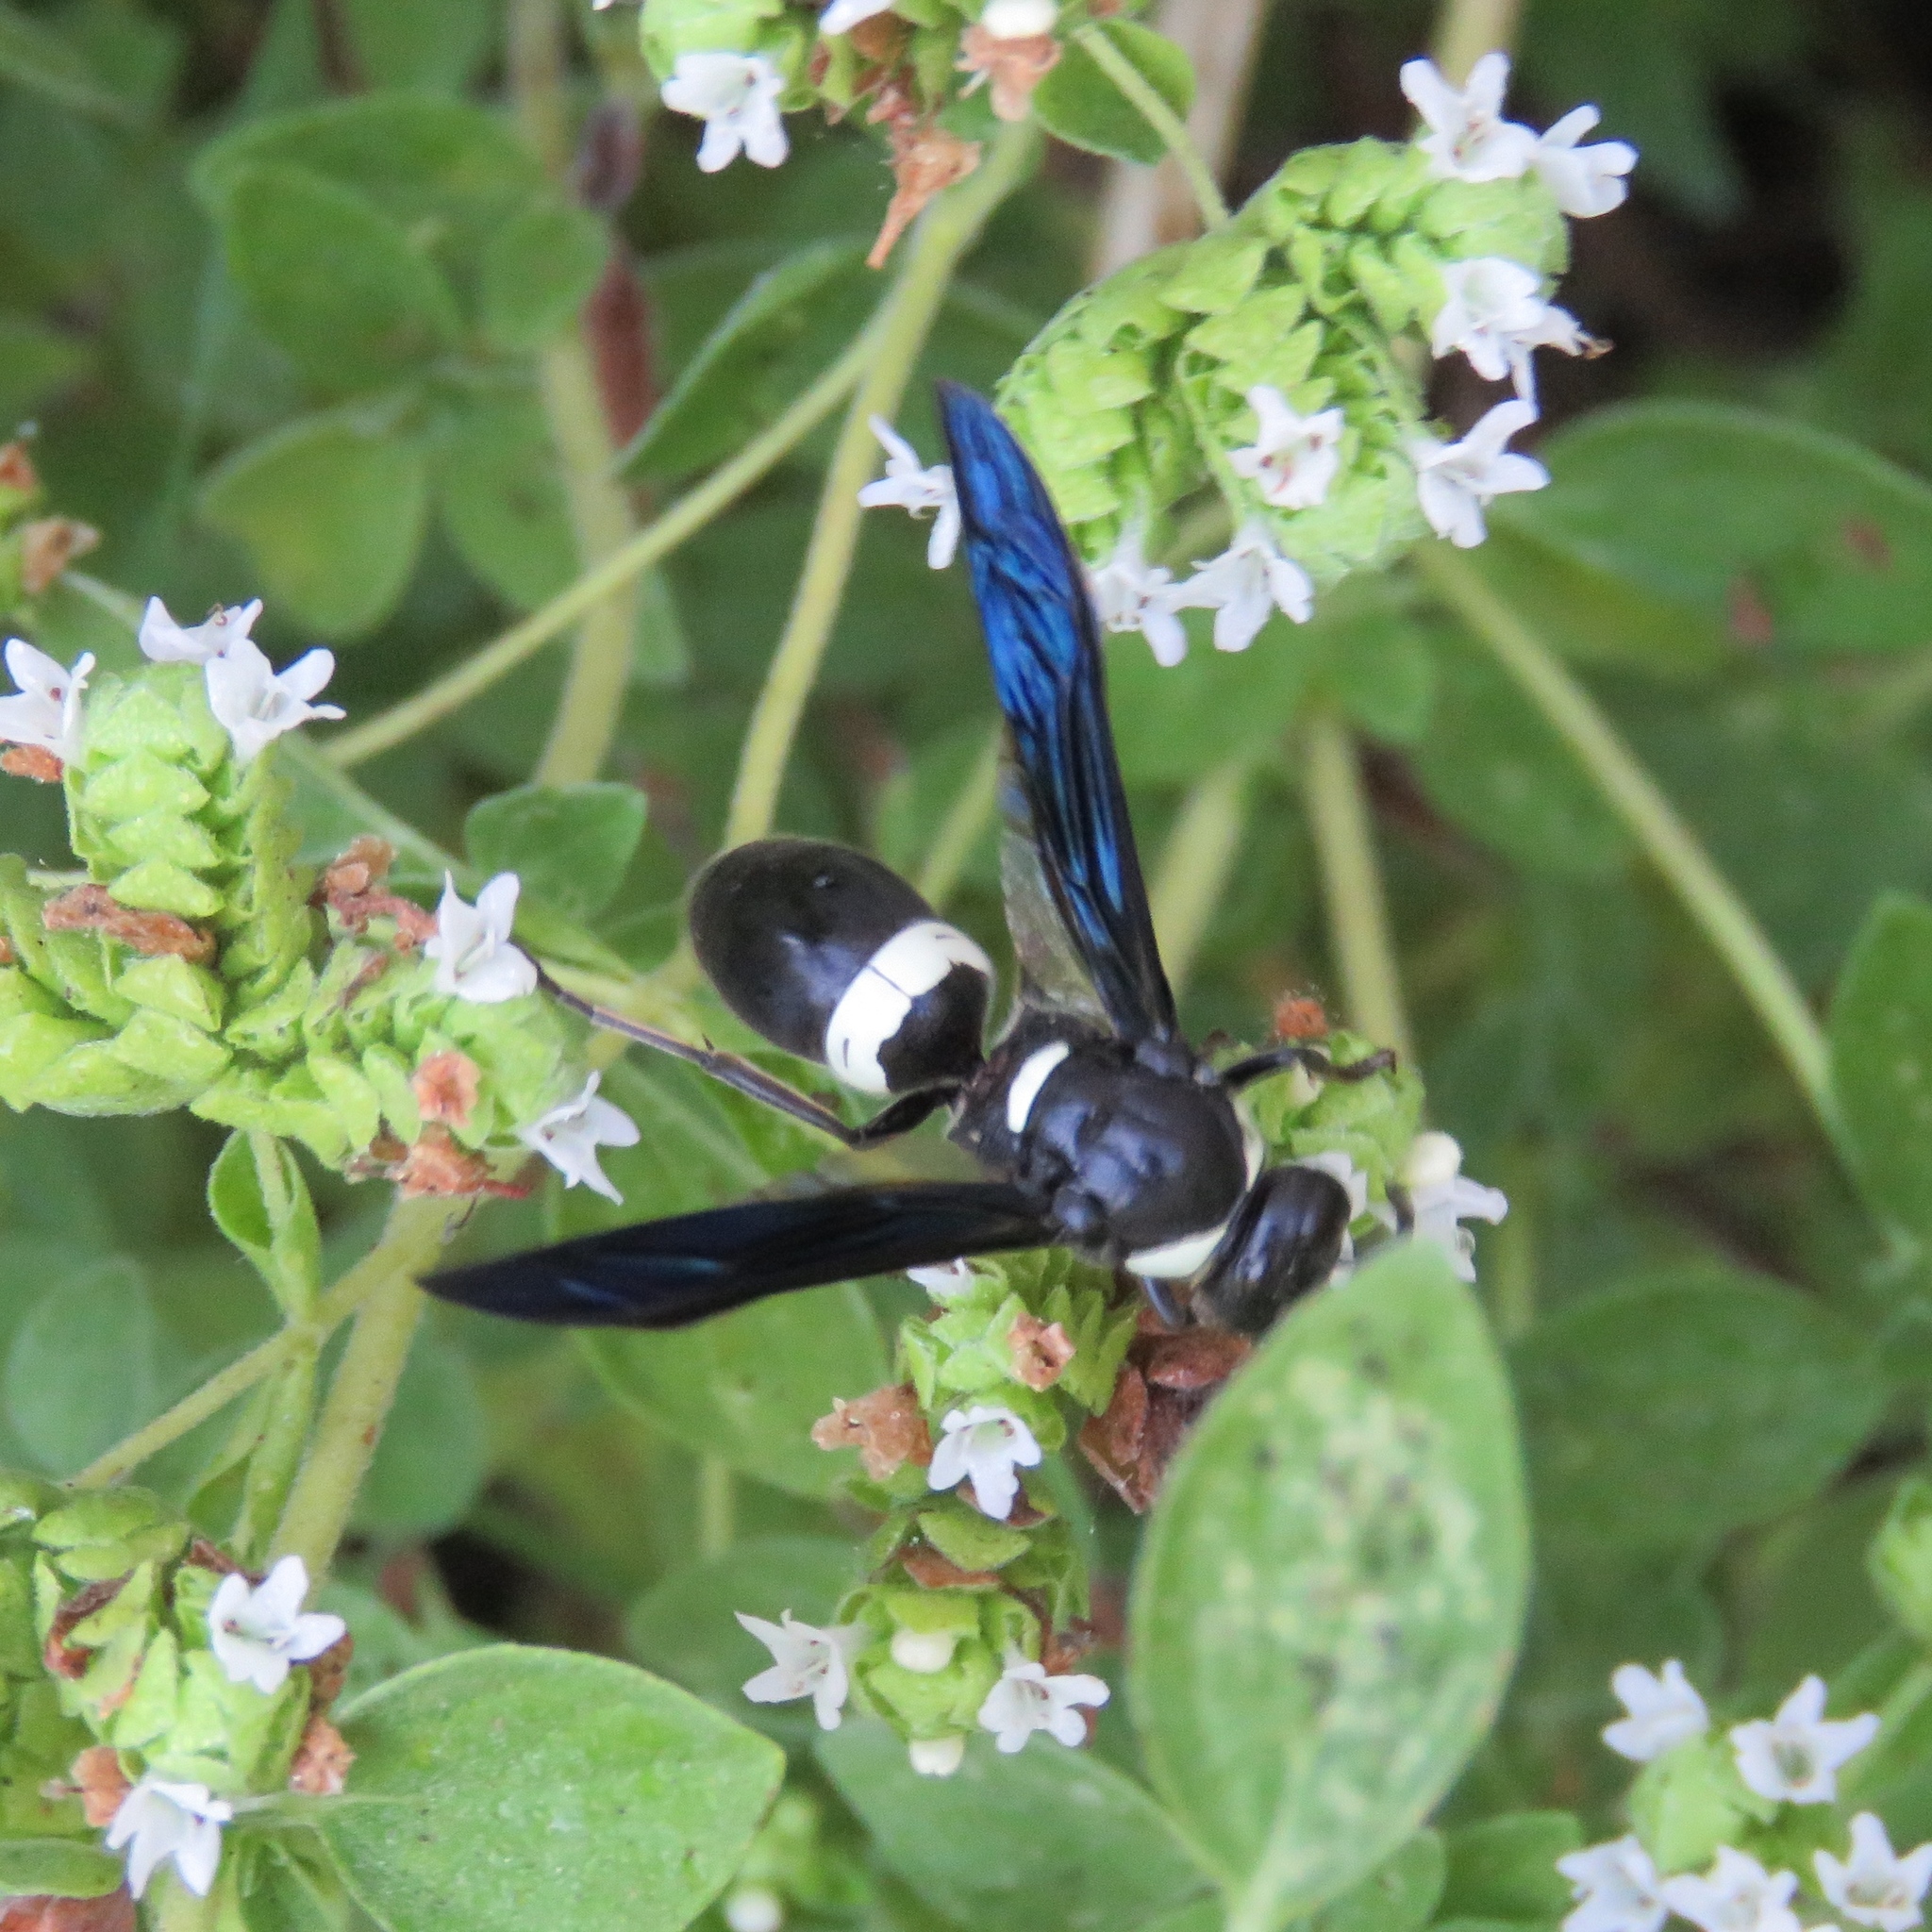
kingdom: Animalia
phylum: Arthropoda
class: Insecta
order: Hymenoptera
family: Eumenidae
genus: Monobia
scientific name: Monobia quadridens
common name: Four-toothed mason wasp
